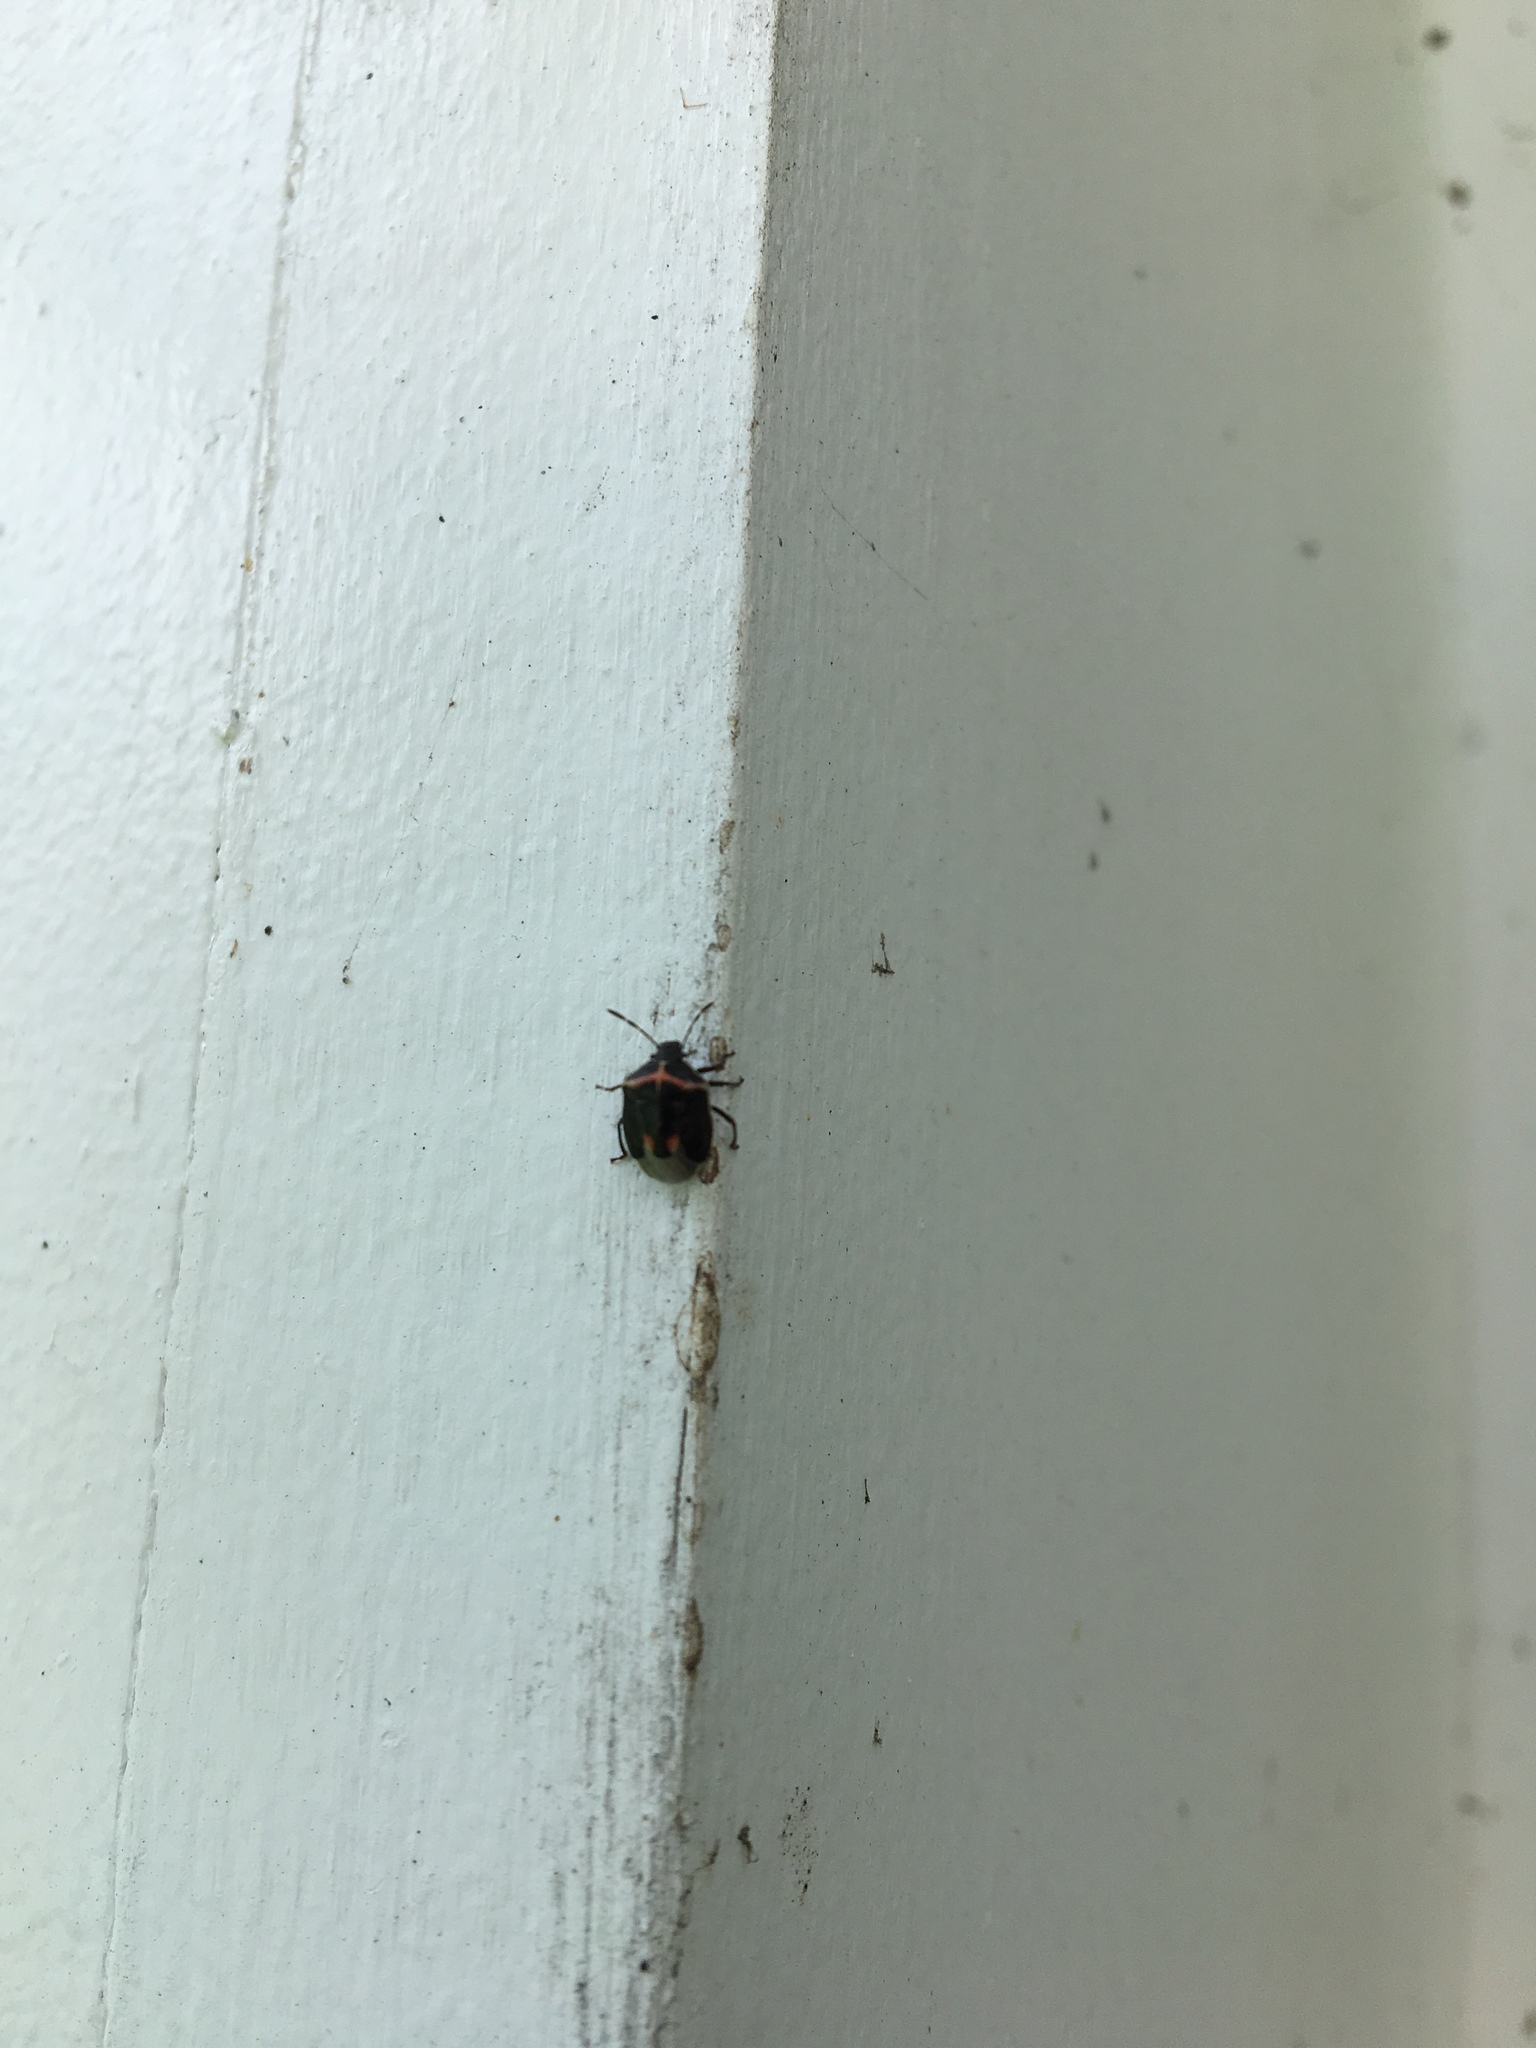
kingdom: Animalia
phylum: Arthropoda
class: Insecta
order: Hemiptera
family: Pentatomidae
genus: Cosmopepla
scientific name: Cosmopepla lintneriana
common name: Twice-stabbed stink bug
